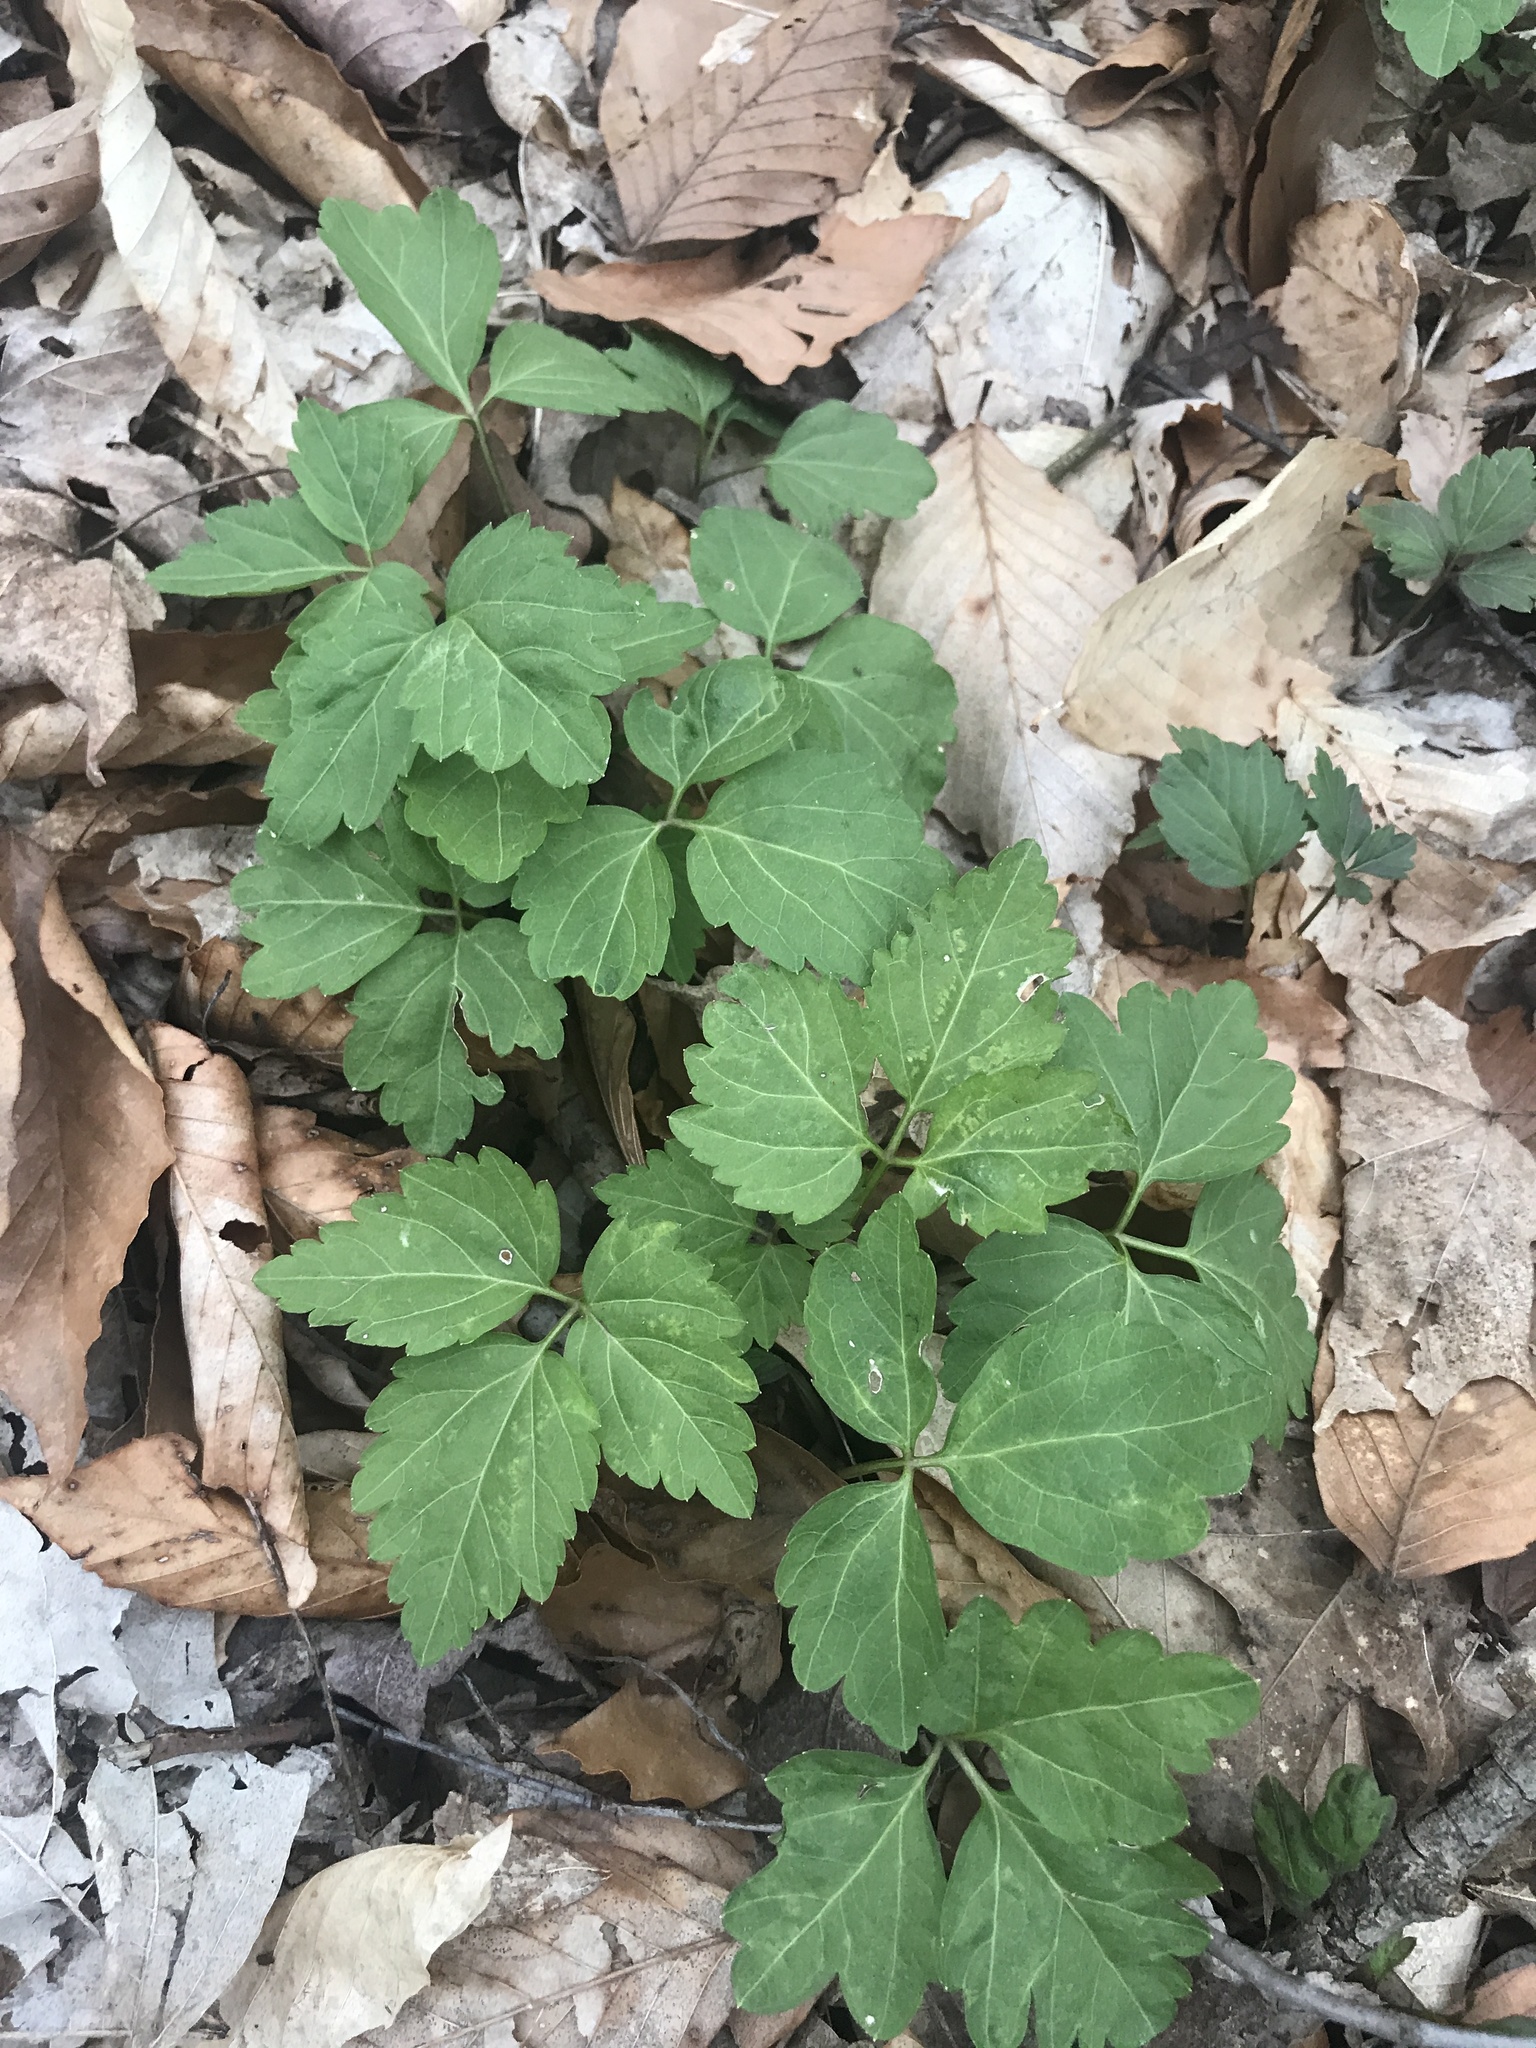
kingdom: Plantae
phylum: Tracheophyta
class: Magnoliopsida
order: Brassicales
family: Brassicaceae
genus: Cardamine
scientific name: Cardamine diphylla
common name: Broad-leaved toothwort
